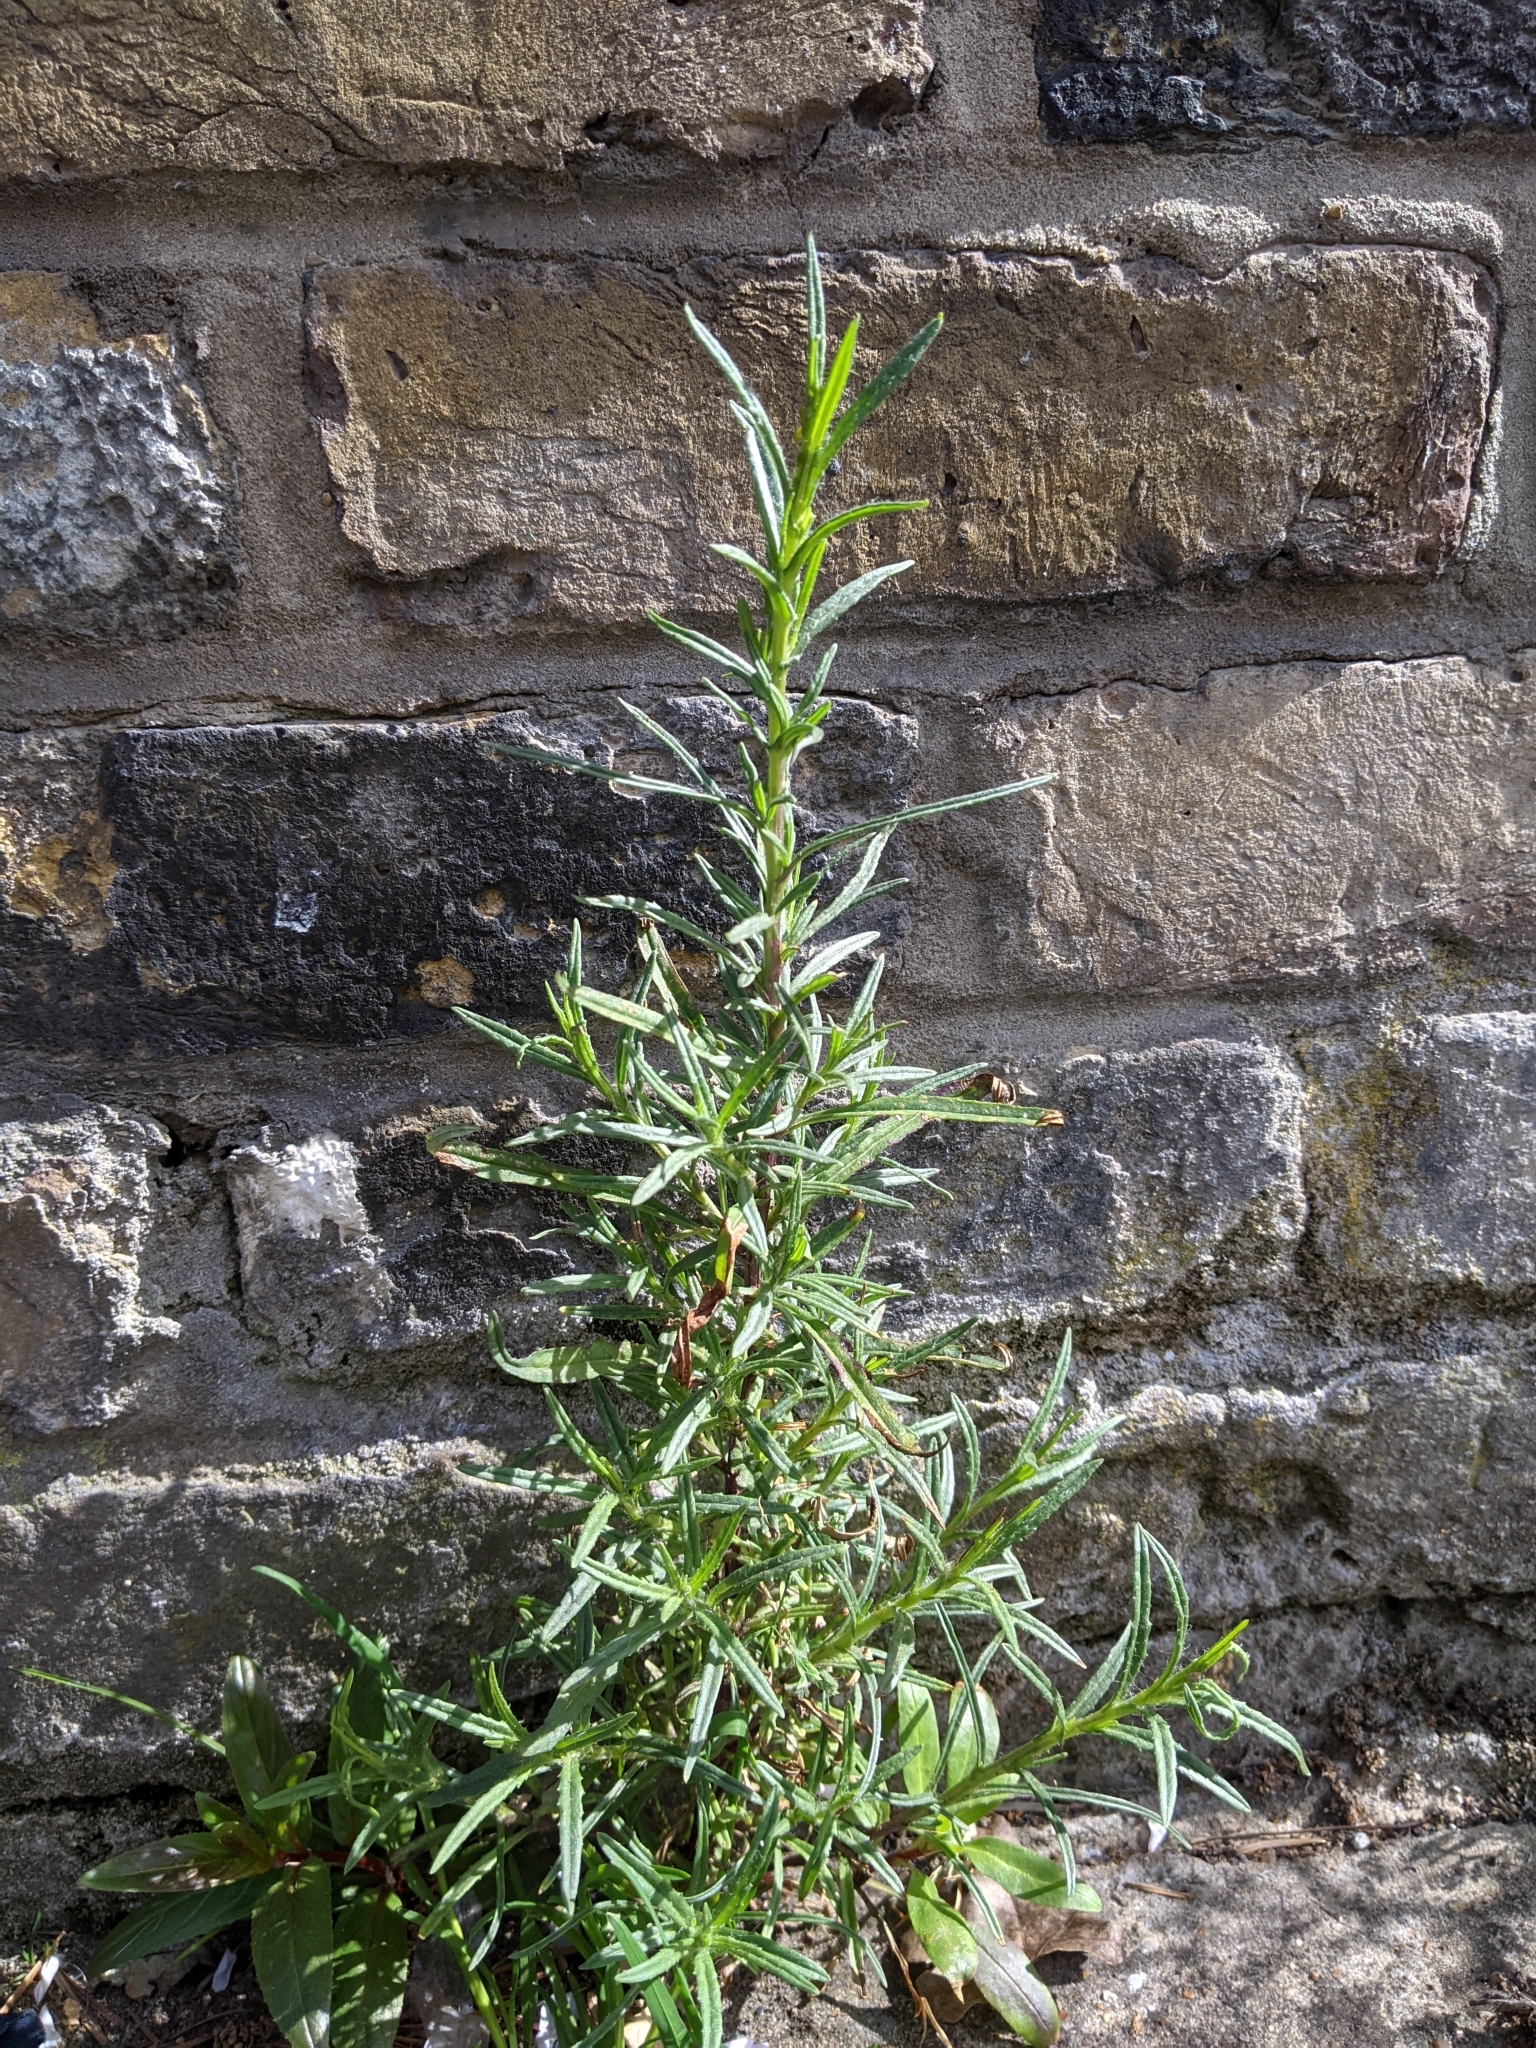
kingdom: Plantae
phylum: Tracheophyta
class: Magnoliopsida
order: Asterales
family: Asteraceae
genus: Senecio
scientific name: Senecio inaequidens
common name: Narrow-leaved ragwort
